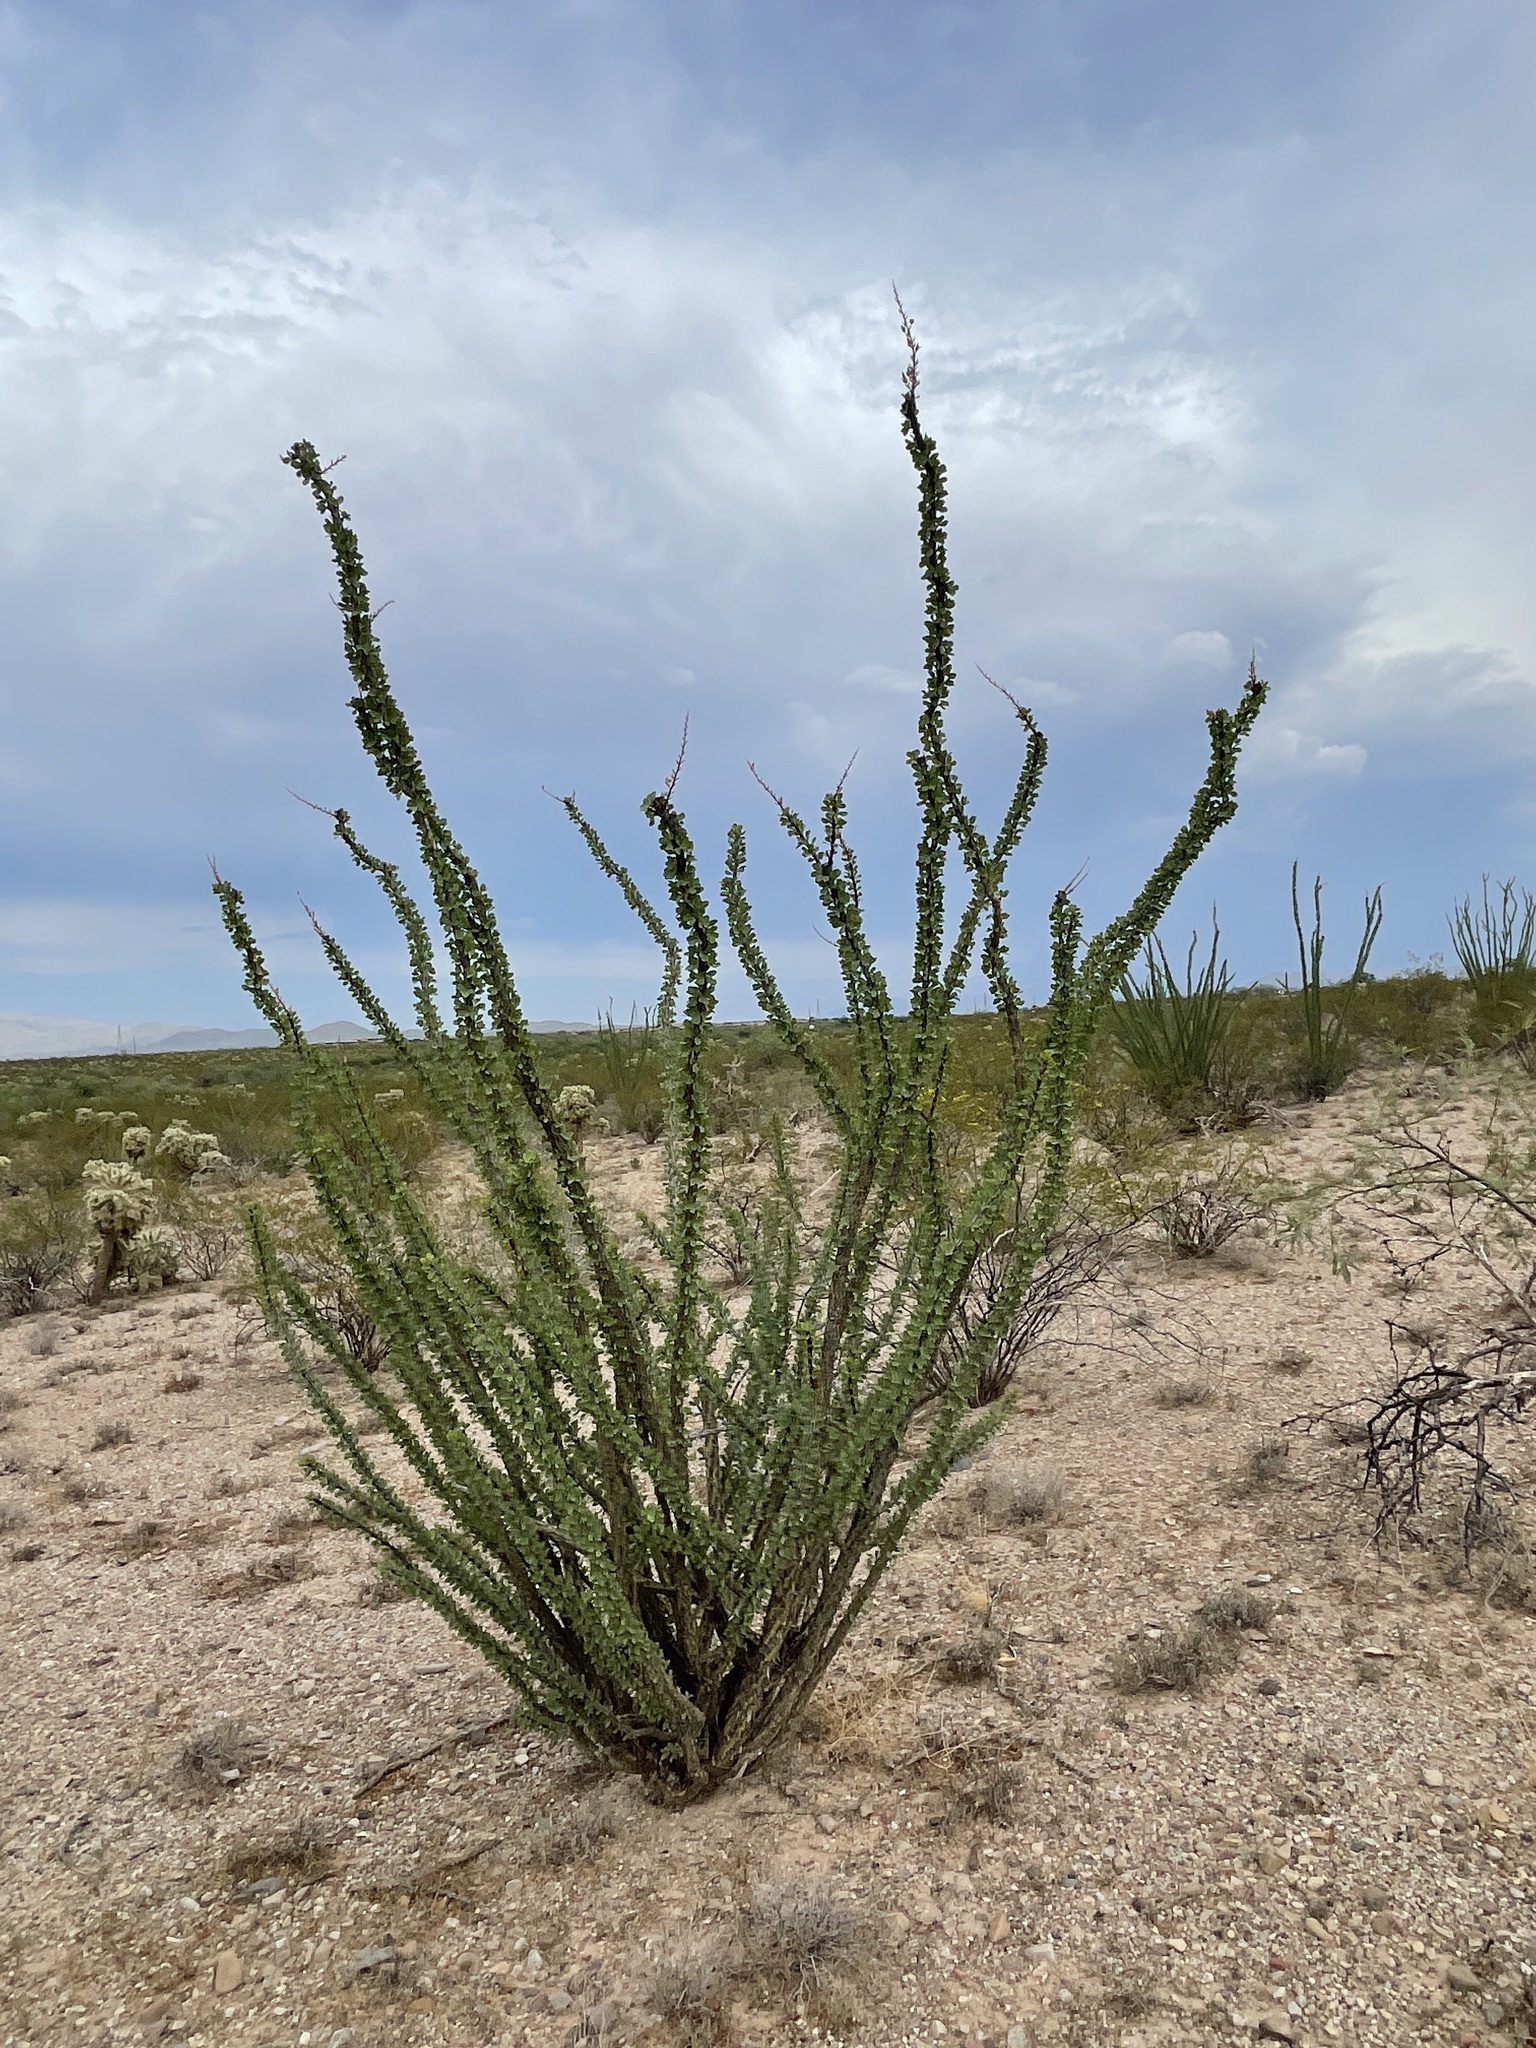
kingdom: Plantae
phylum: Tracheophyta
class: Magnoliopsida
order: Ericales
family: Fouquieriaceae
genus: Fouquieria
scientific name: Fouquieria splendens
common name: Vine-cactus
